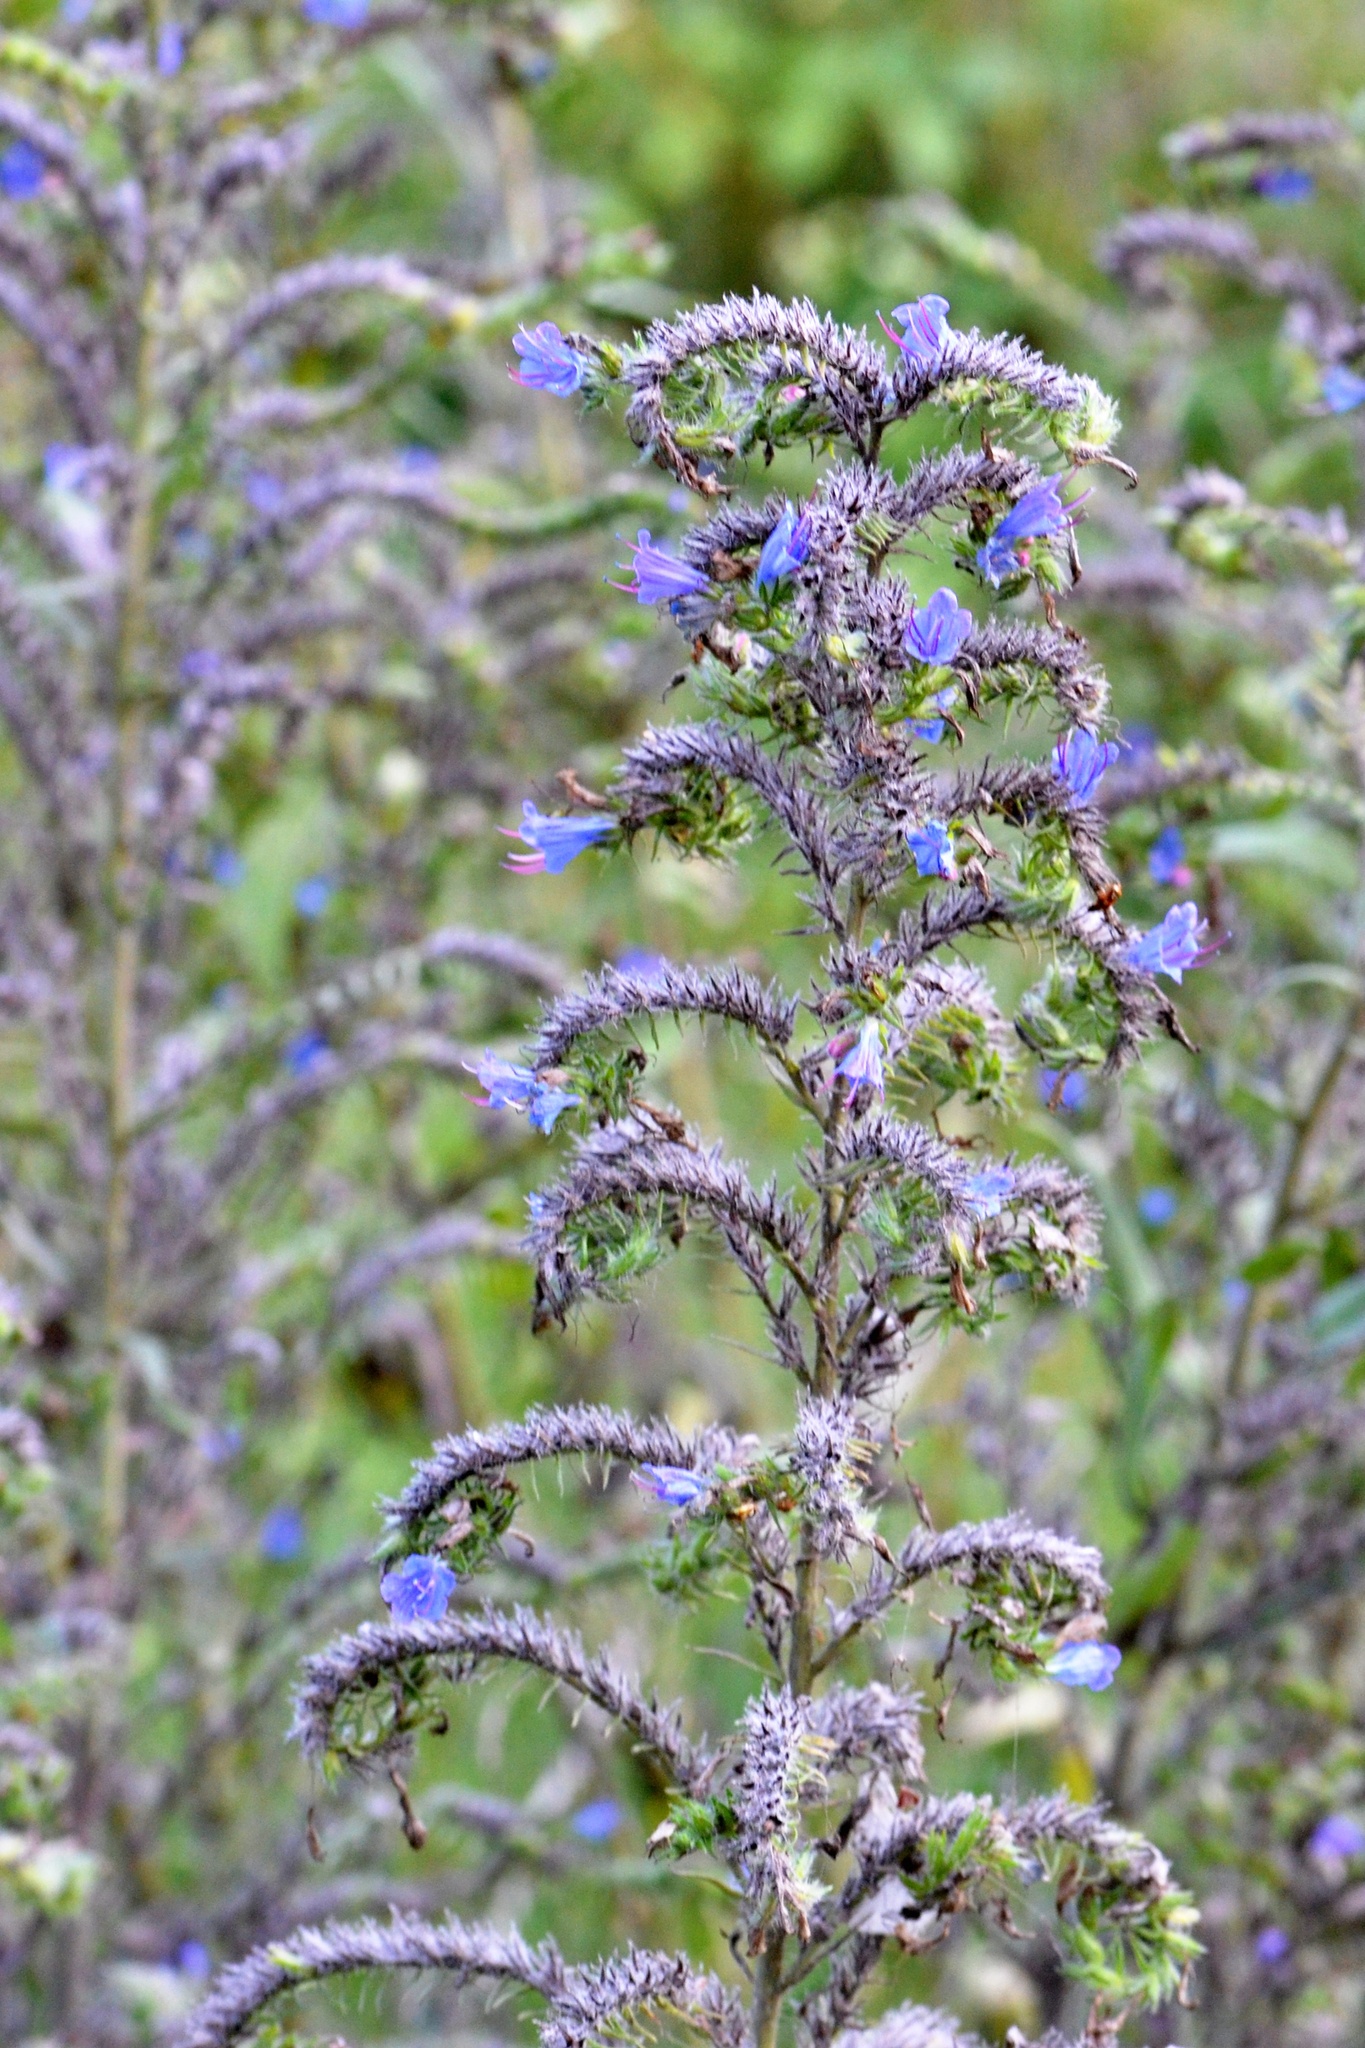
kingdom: Plantae
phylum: Tracheophyta
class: Magnoliopsida
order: Boraginales
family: Boraginaceae
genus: Echium
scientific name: Echium vulgare
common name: Common viper's bugloss
